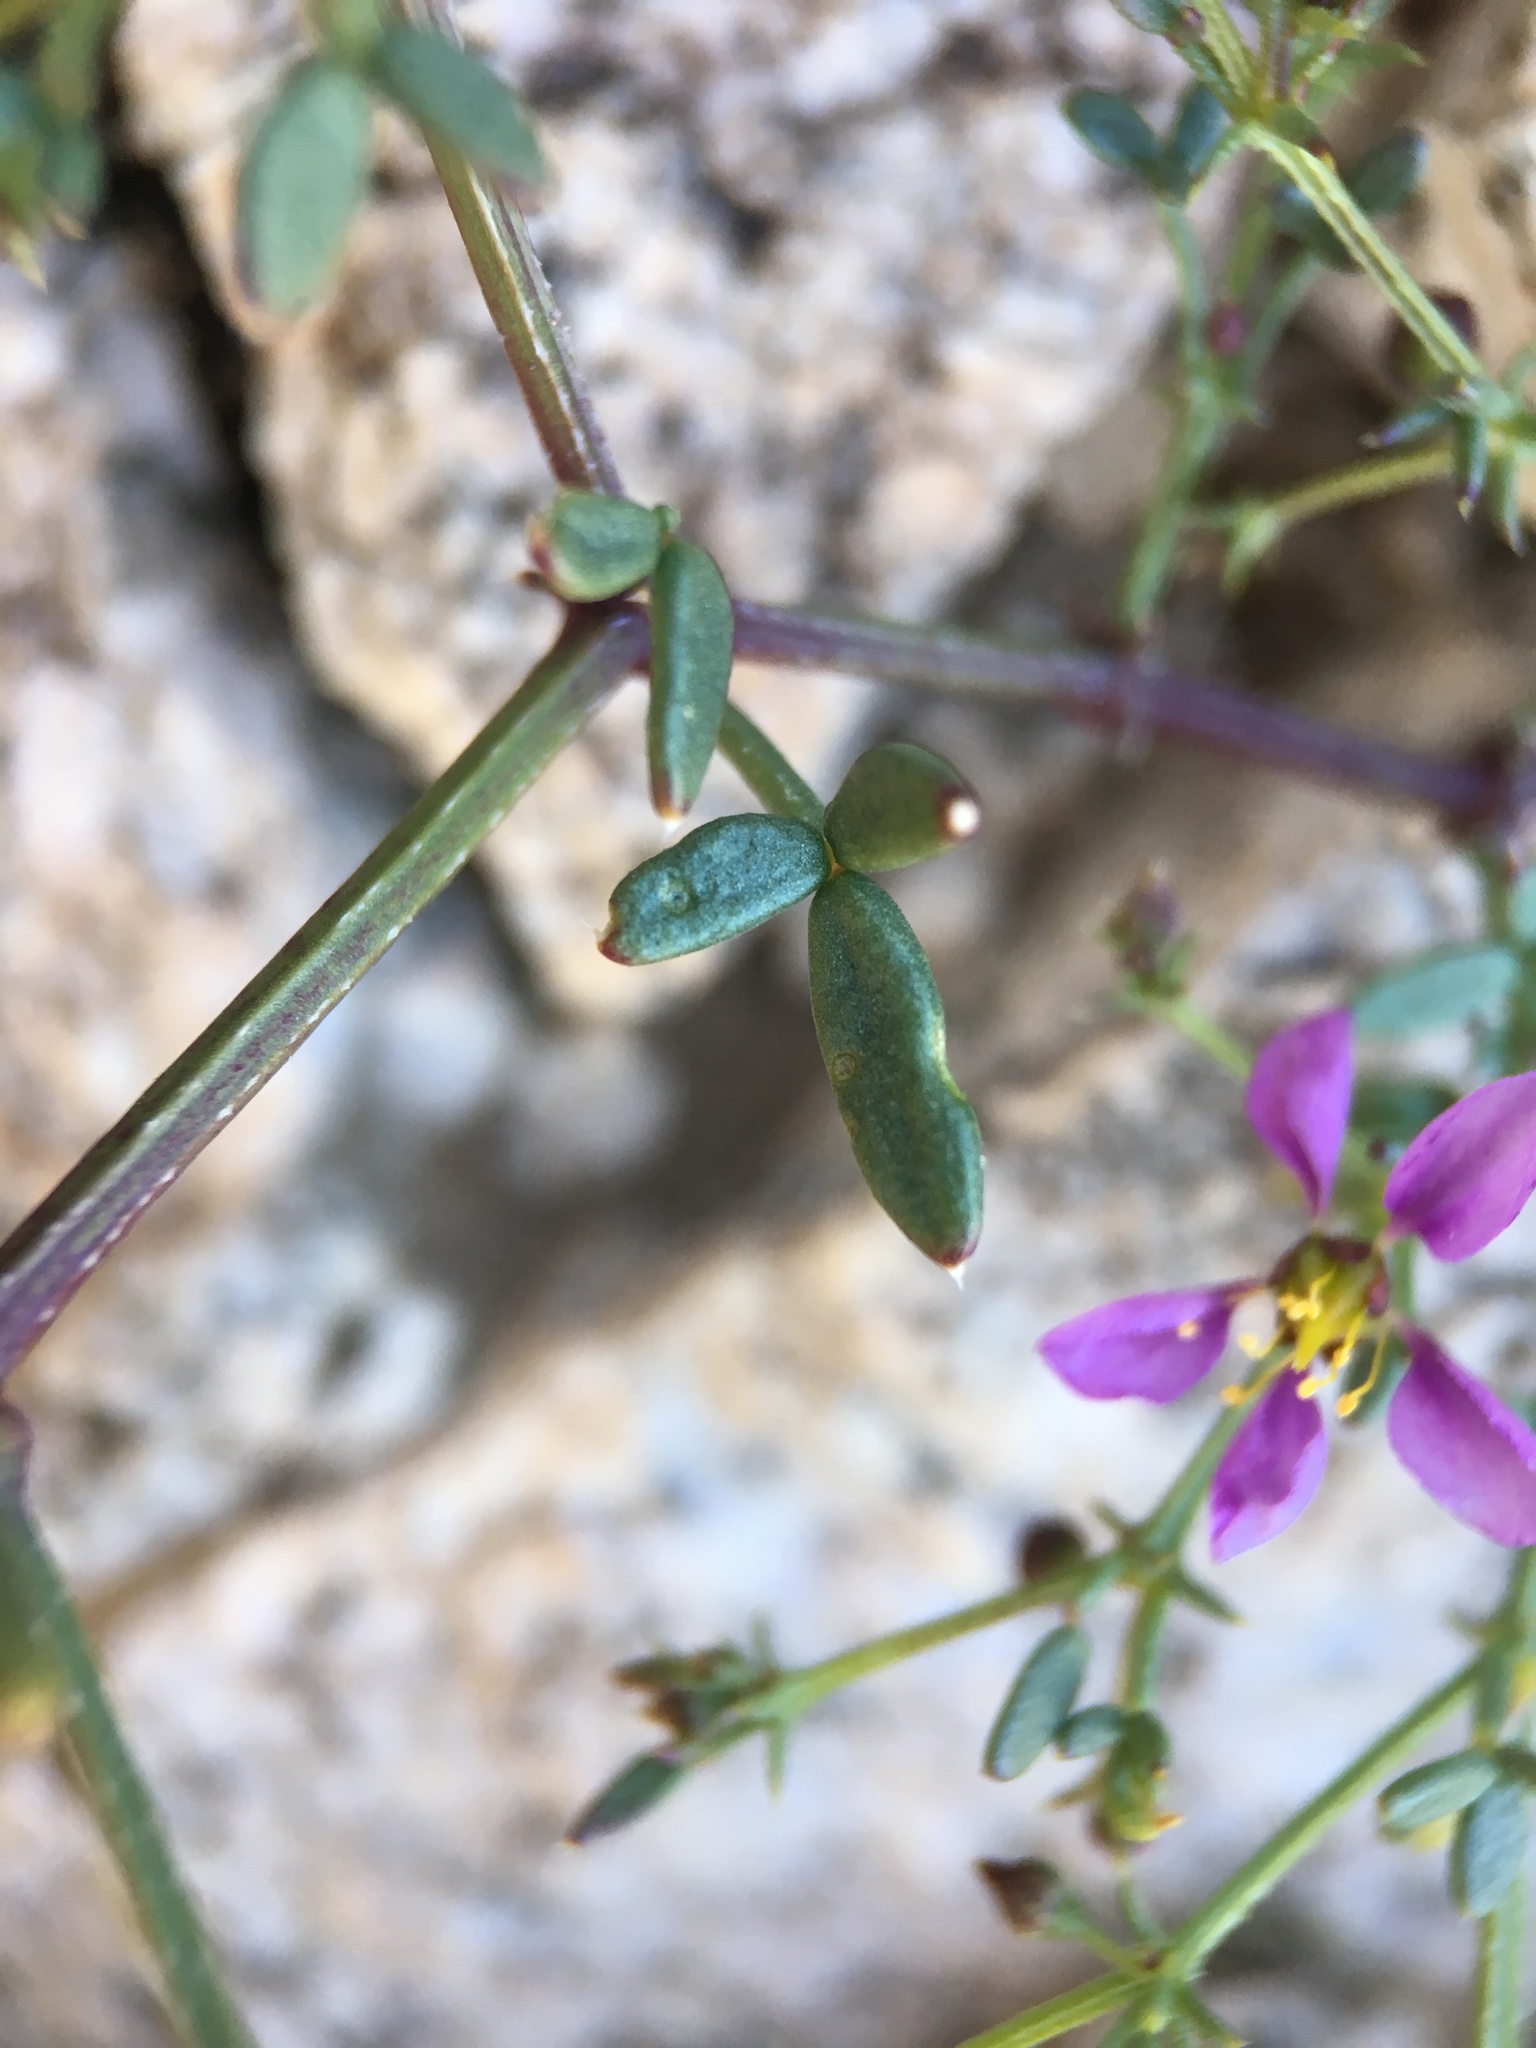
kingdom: Plantae
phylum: Tracheophyta
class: Magnoliopsida
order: Zygophyllales
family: Zygophyllaceae
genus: Fagonia
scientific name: Fagonia laevis
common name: California fagonbush
